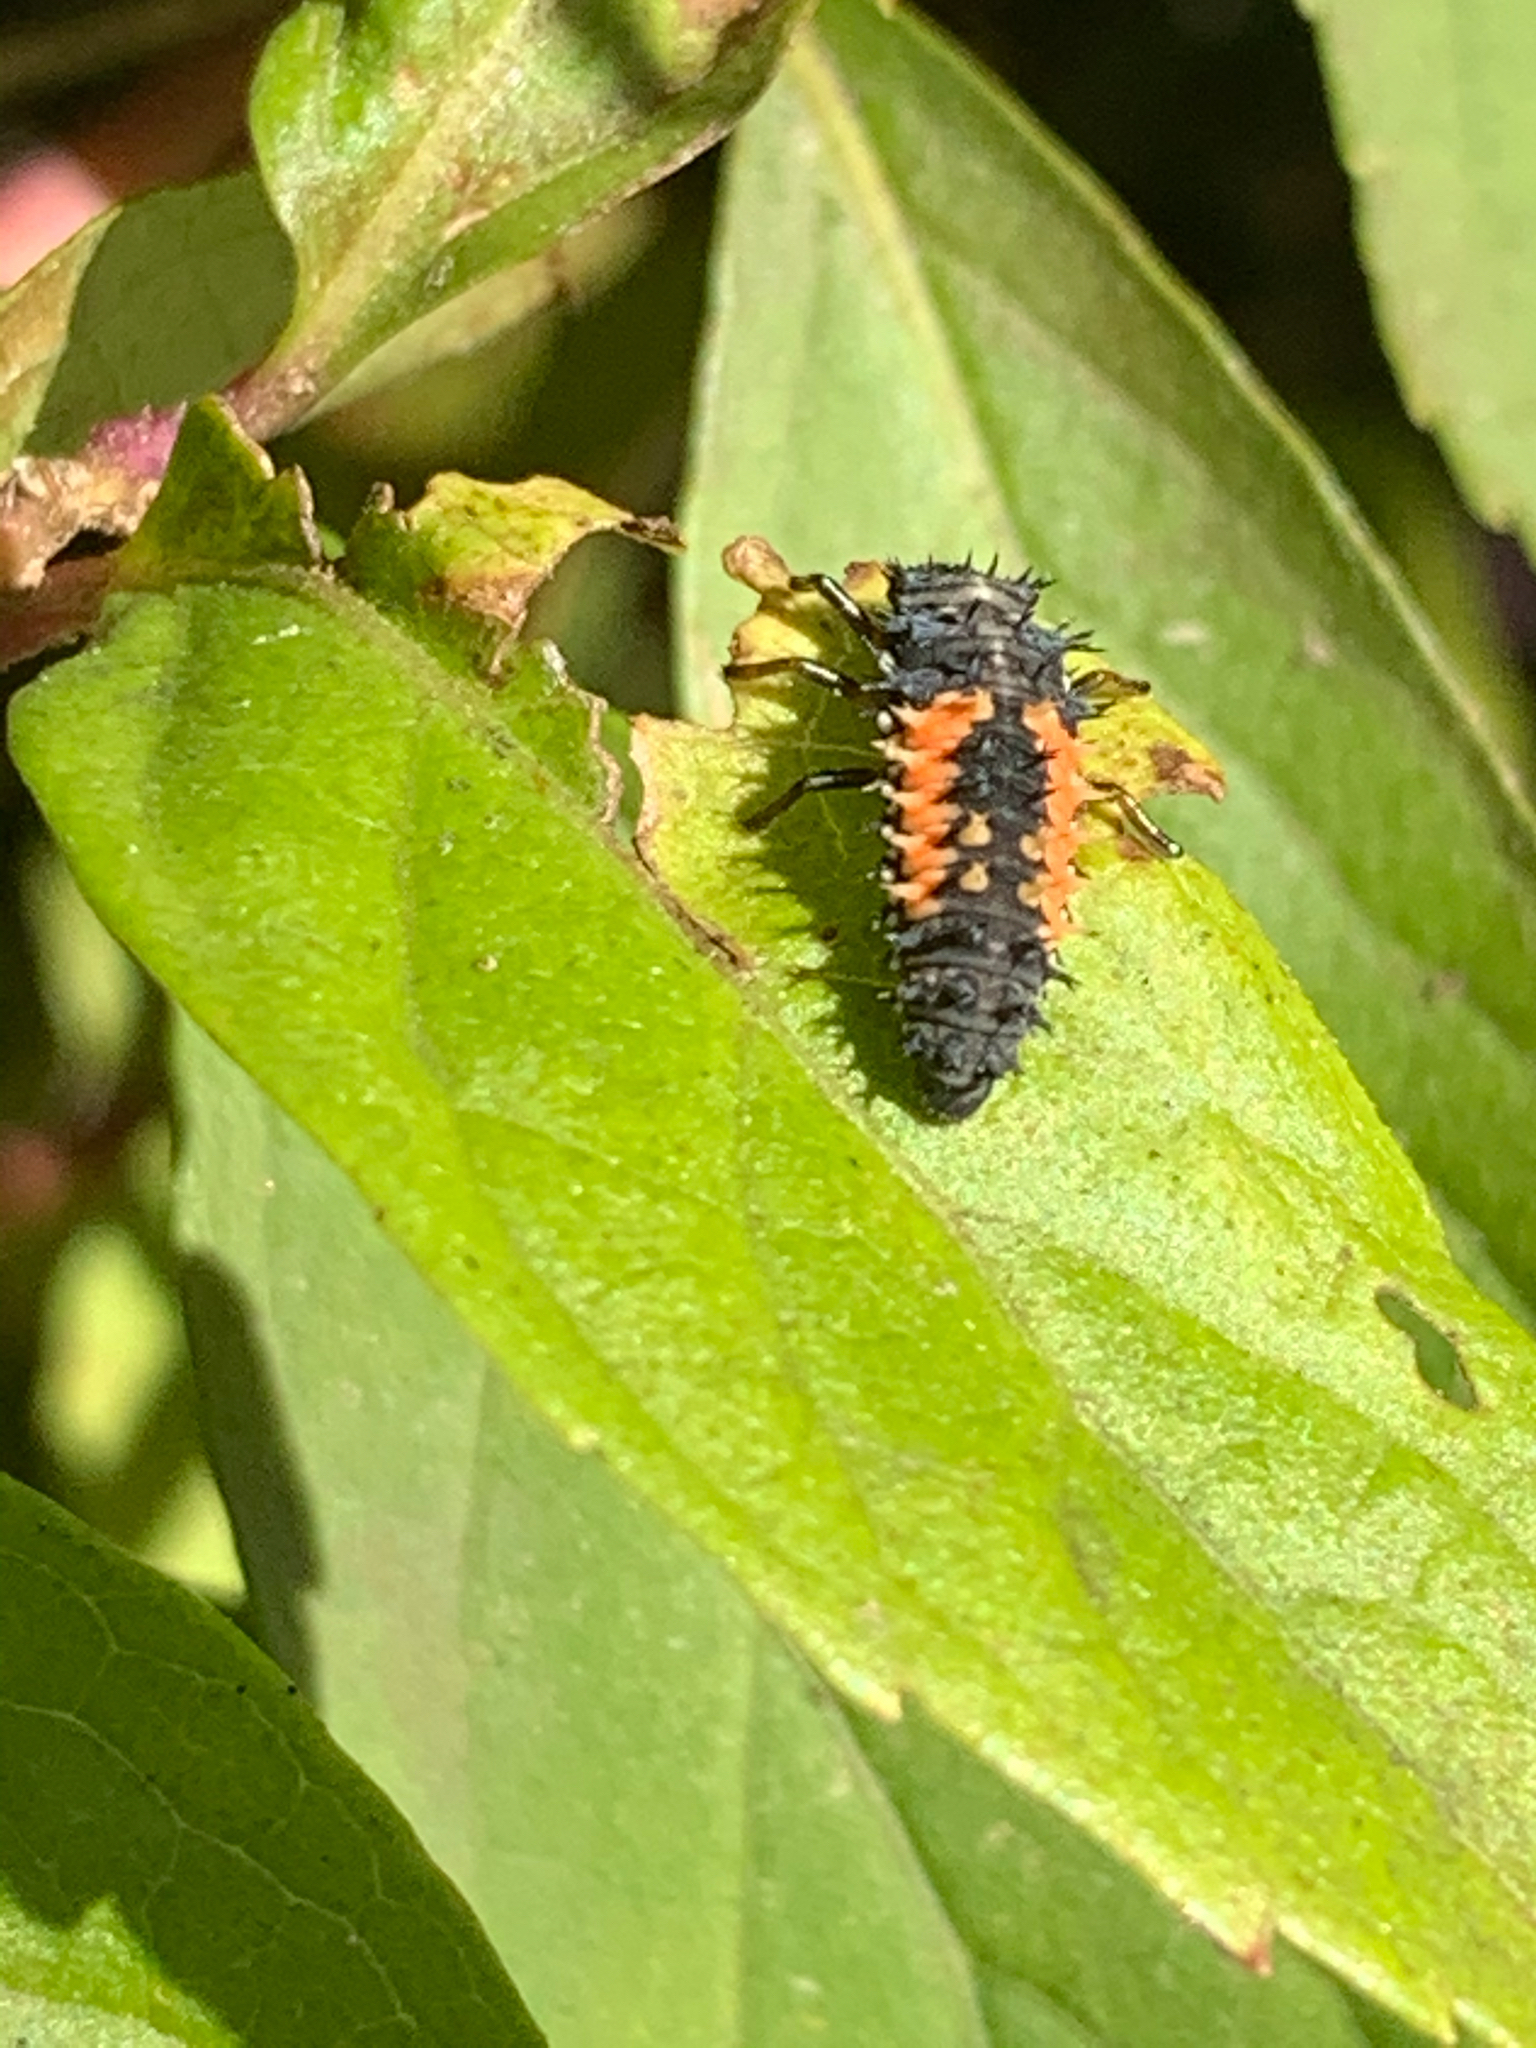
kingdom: Animalia
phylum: Arthropoda
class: Insecta
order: Coleoptera
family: Coccinellidae
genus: Harmonia
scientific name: Harmonia axyridis
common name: Harlequin ladybird
